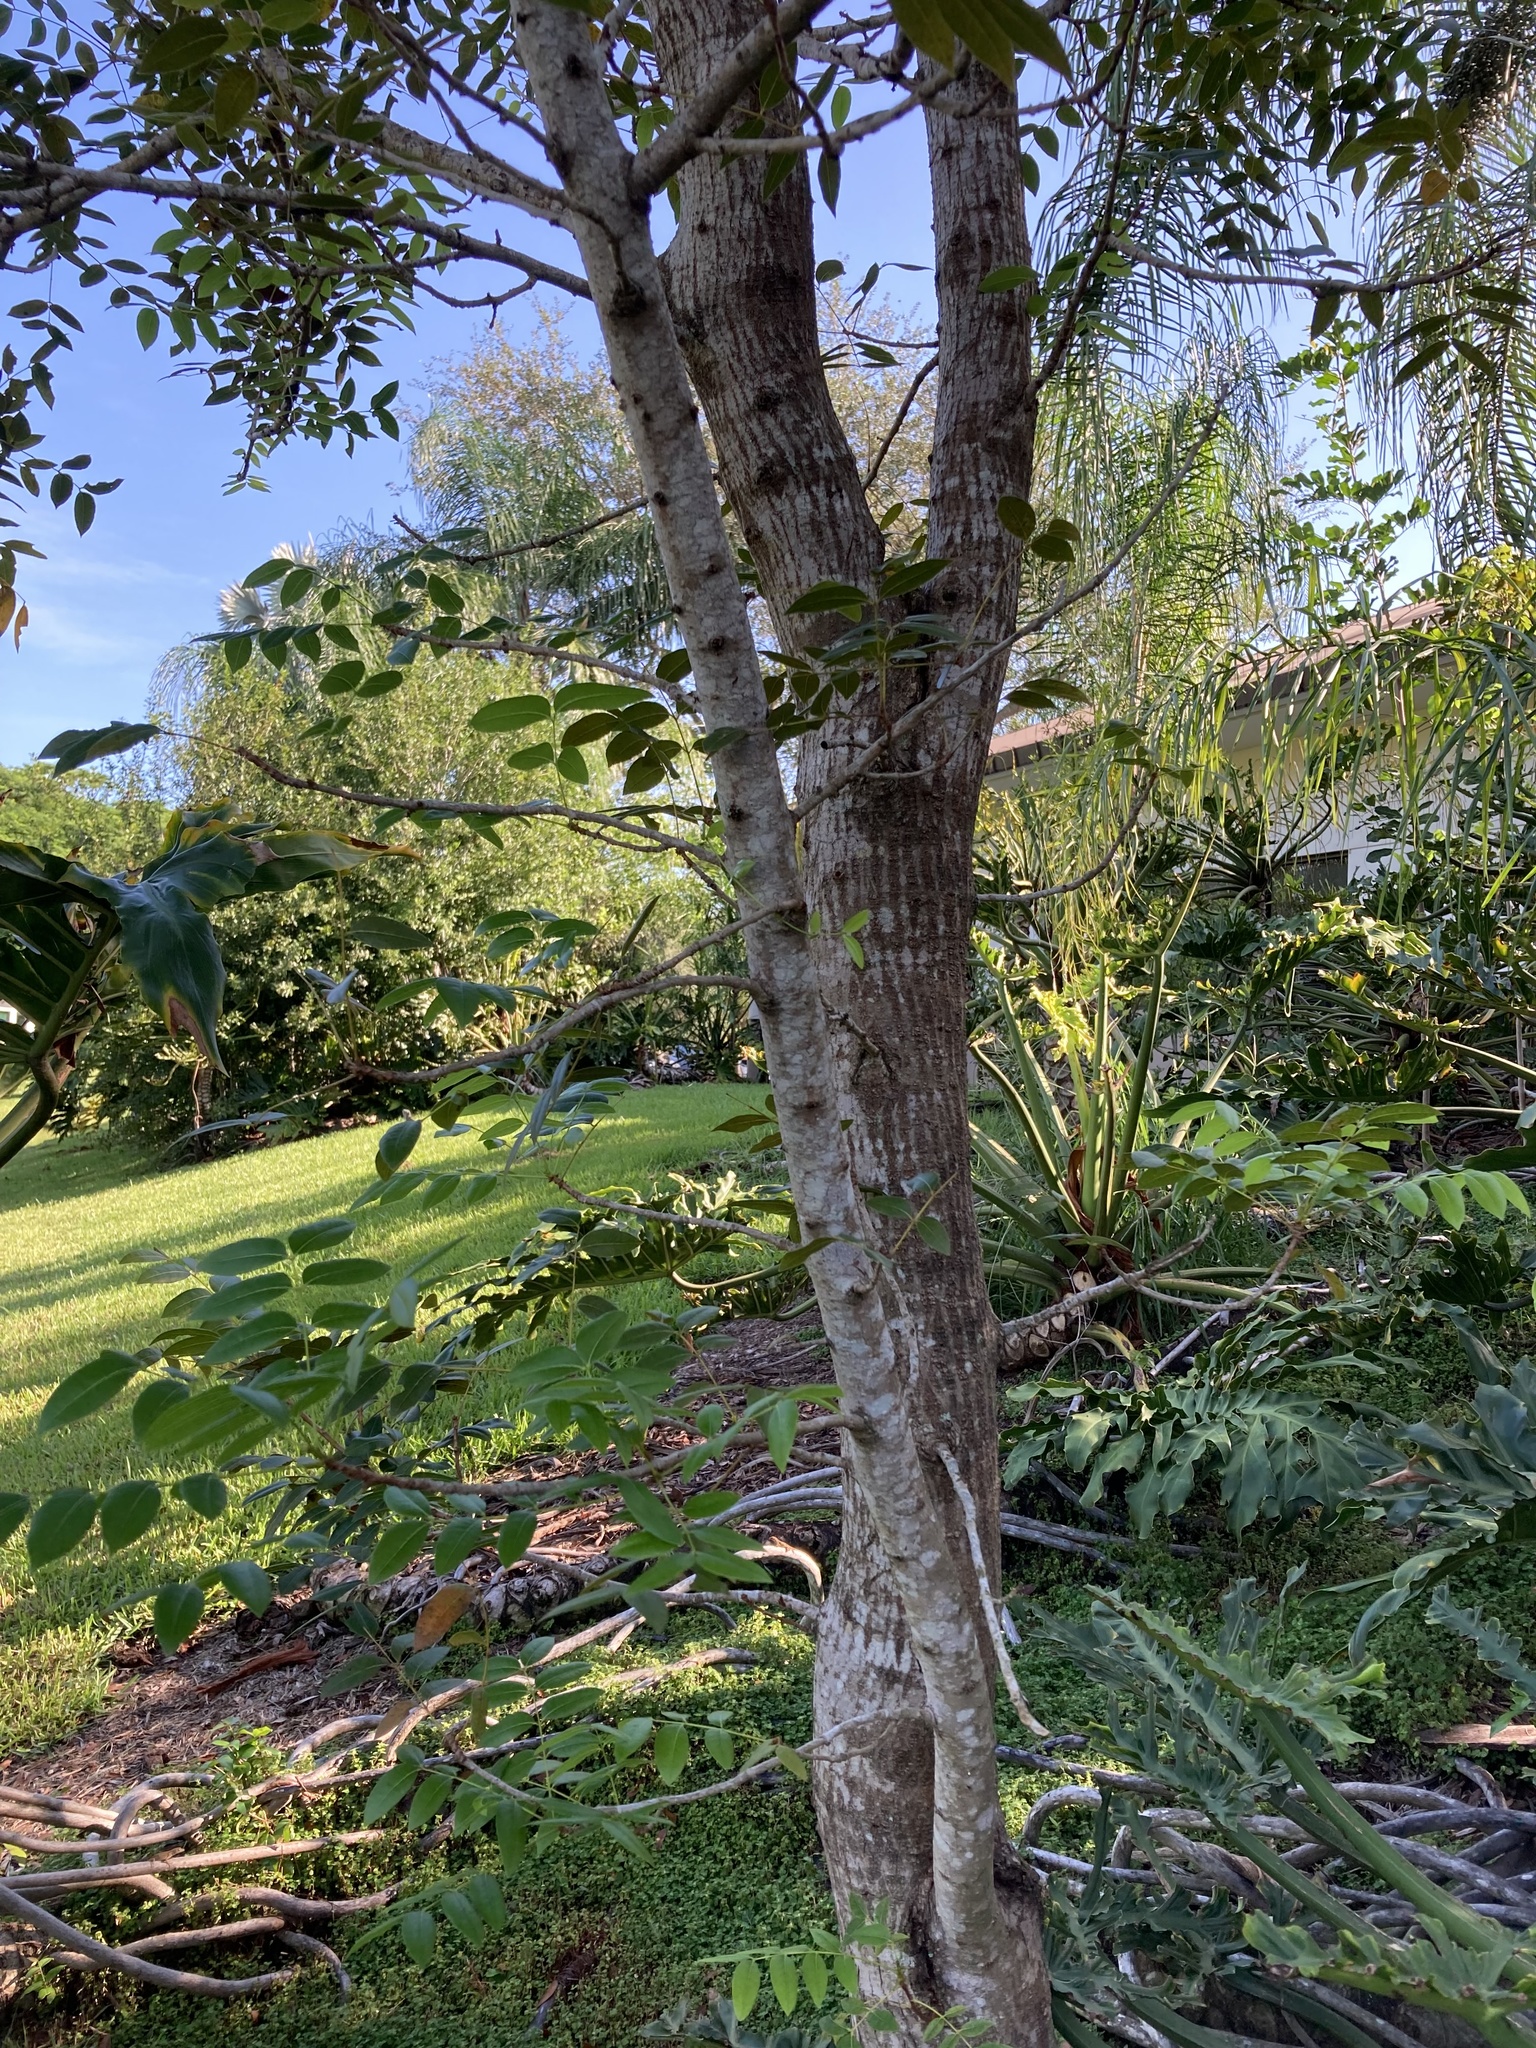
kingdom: Plantae
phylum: Tracheophyta
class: Magnoliopsida
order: Sapindales
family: Meliaceae
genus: Swietenia
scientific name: Swietenia mahagoni
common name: West indian mahogany
